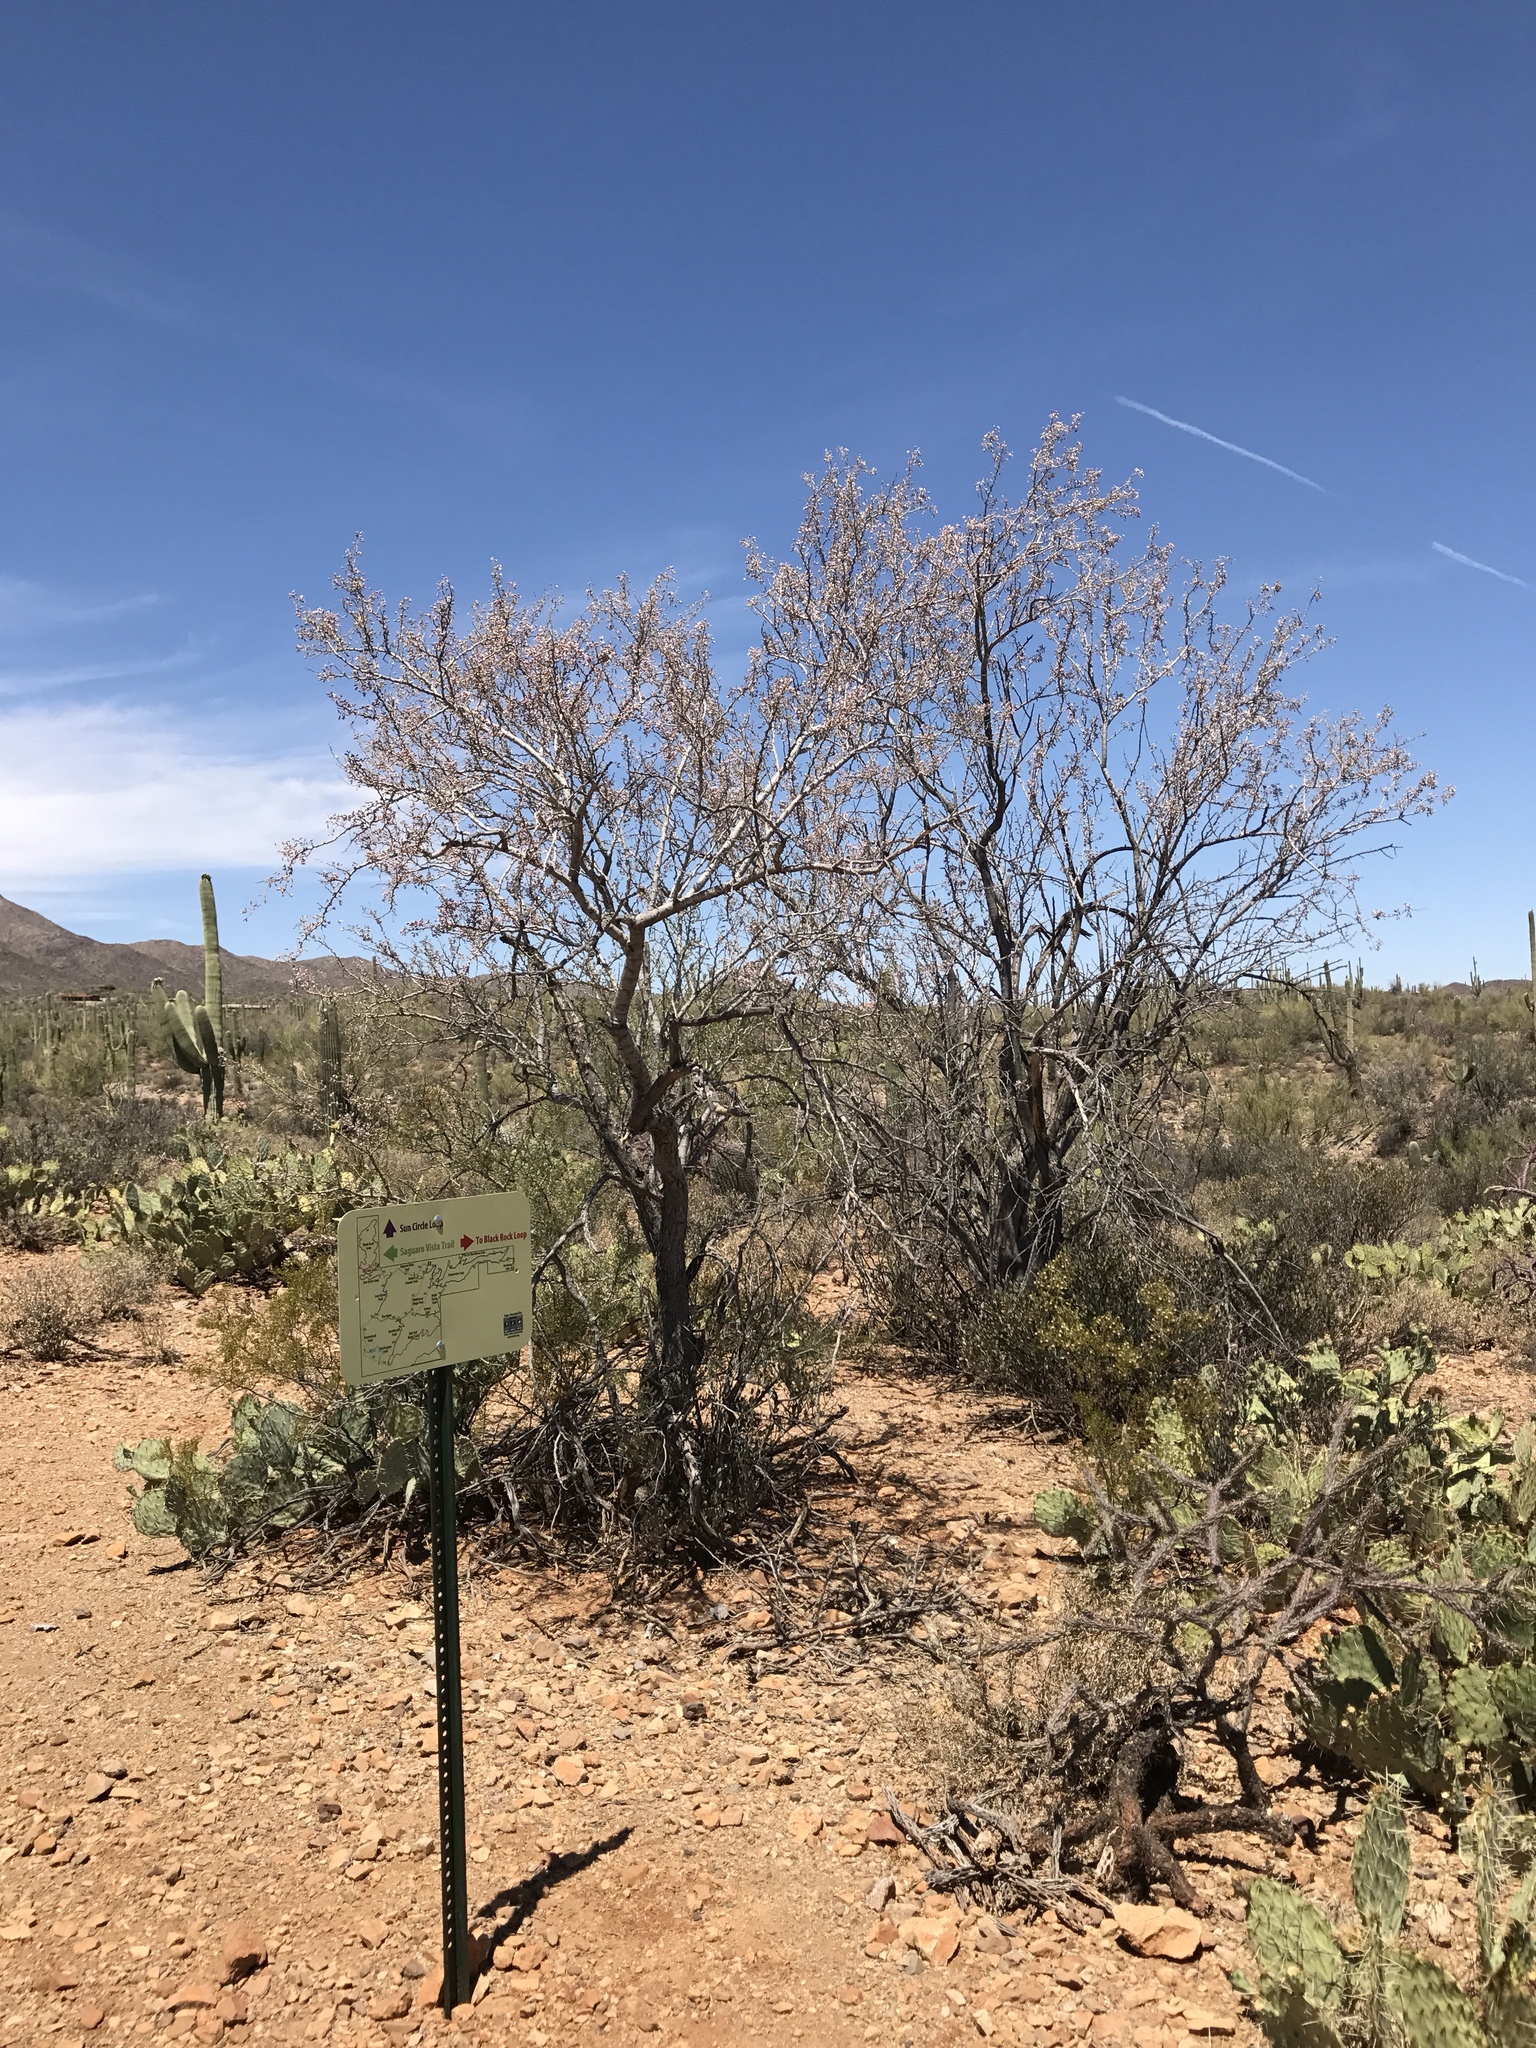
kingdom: Plantae
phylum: Tracheophyta
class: Magnoliopsida
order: Fabales
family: Fabaceae
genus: Olneya
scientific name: Olneya tesota
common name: Desert ironwood
